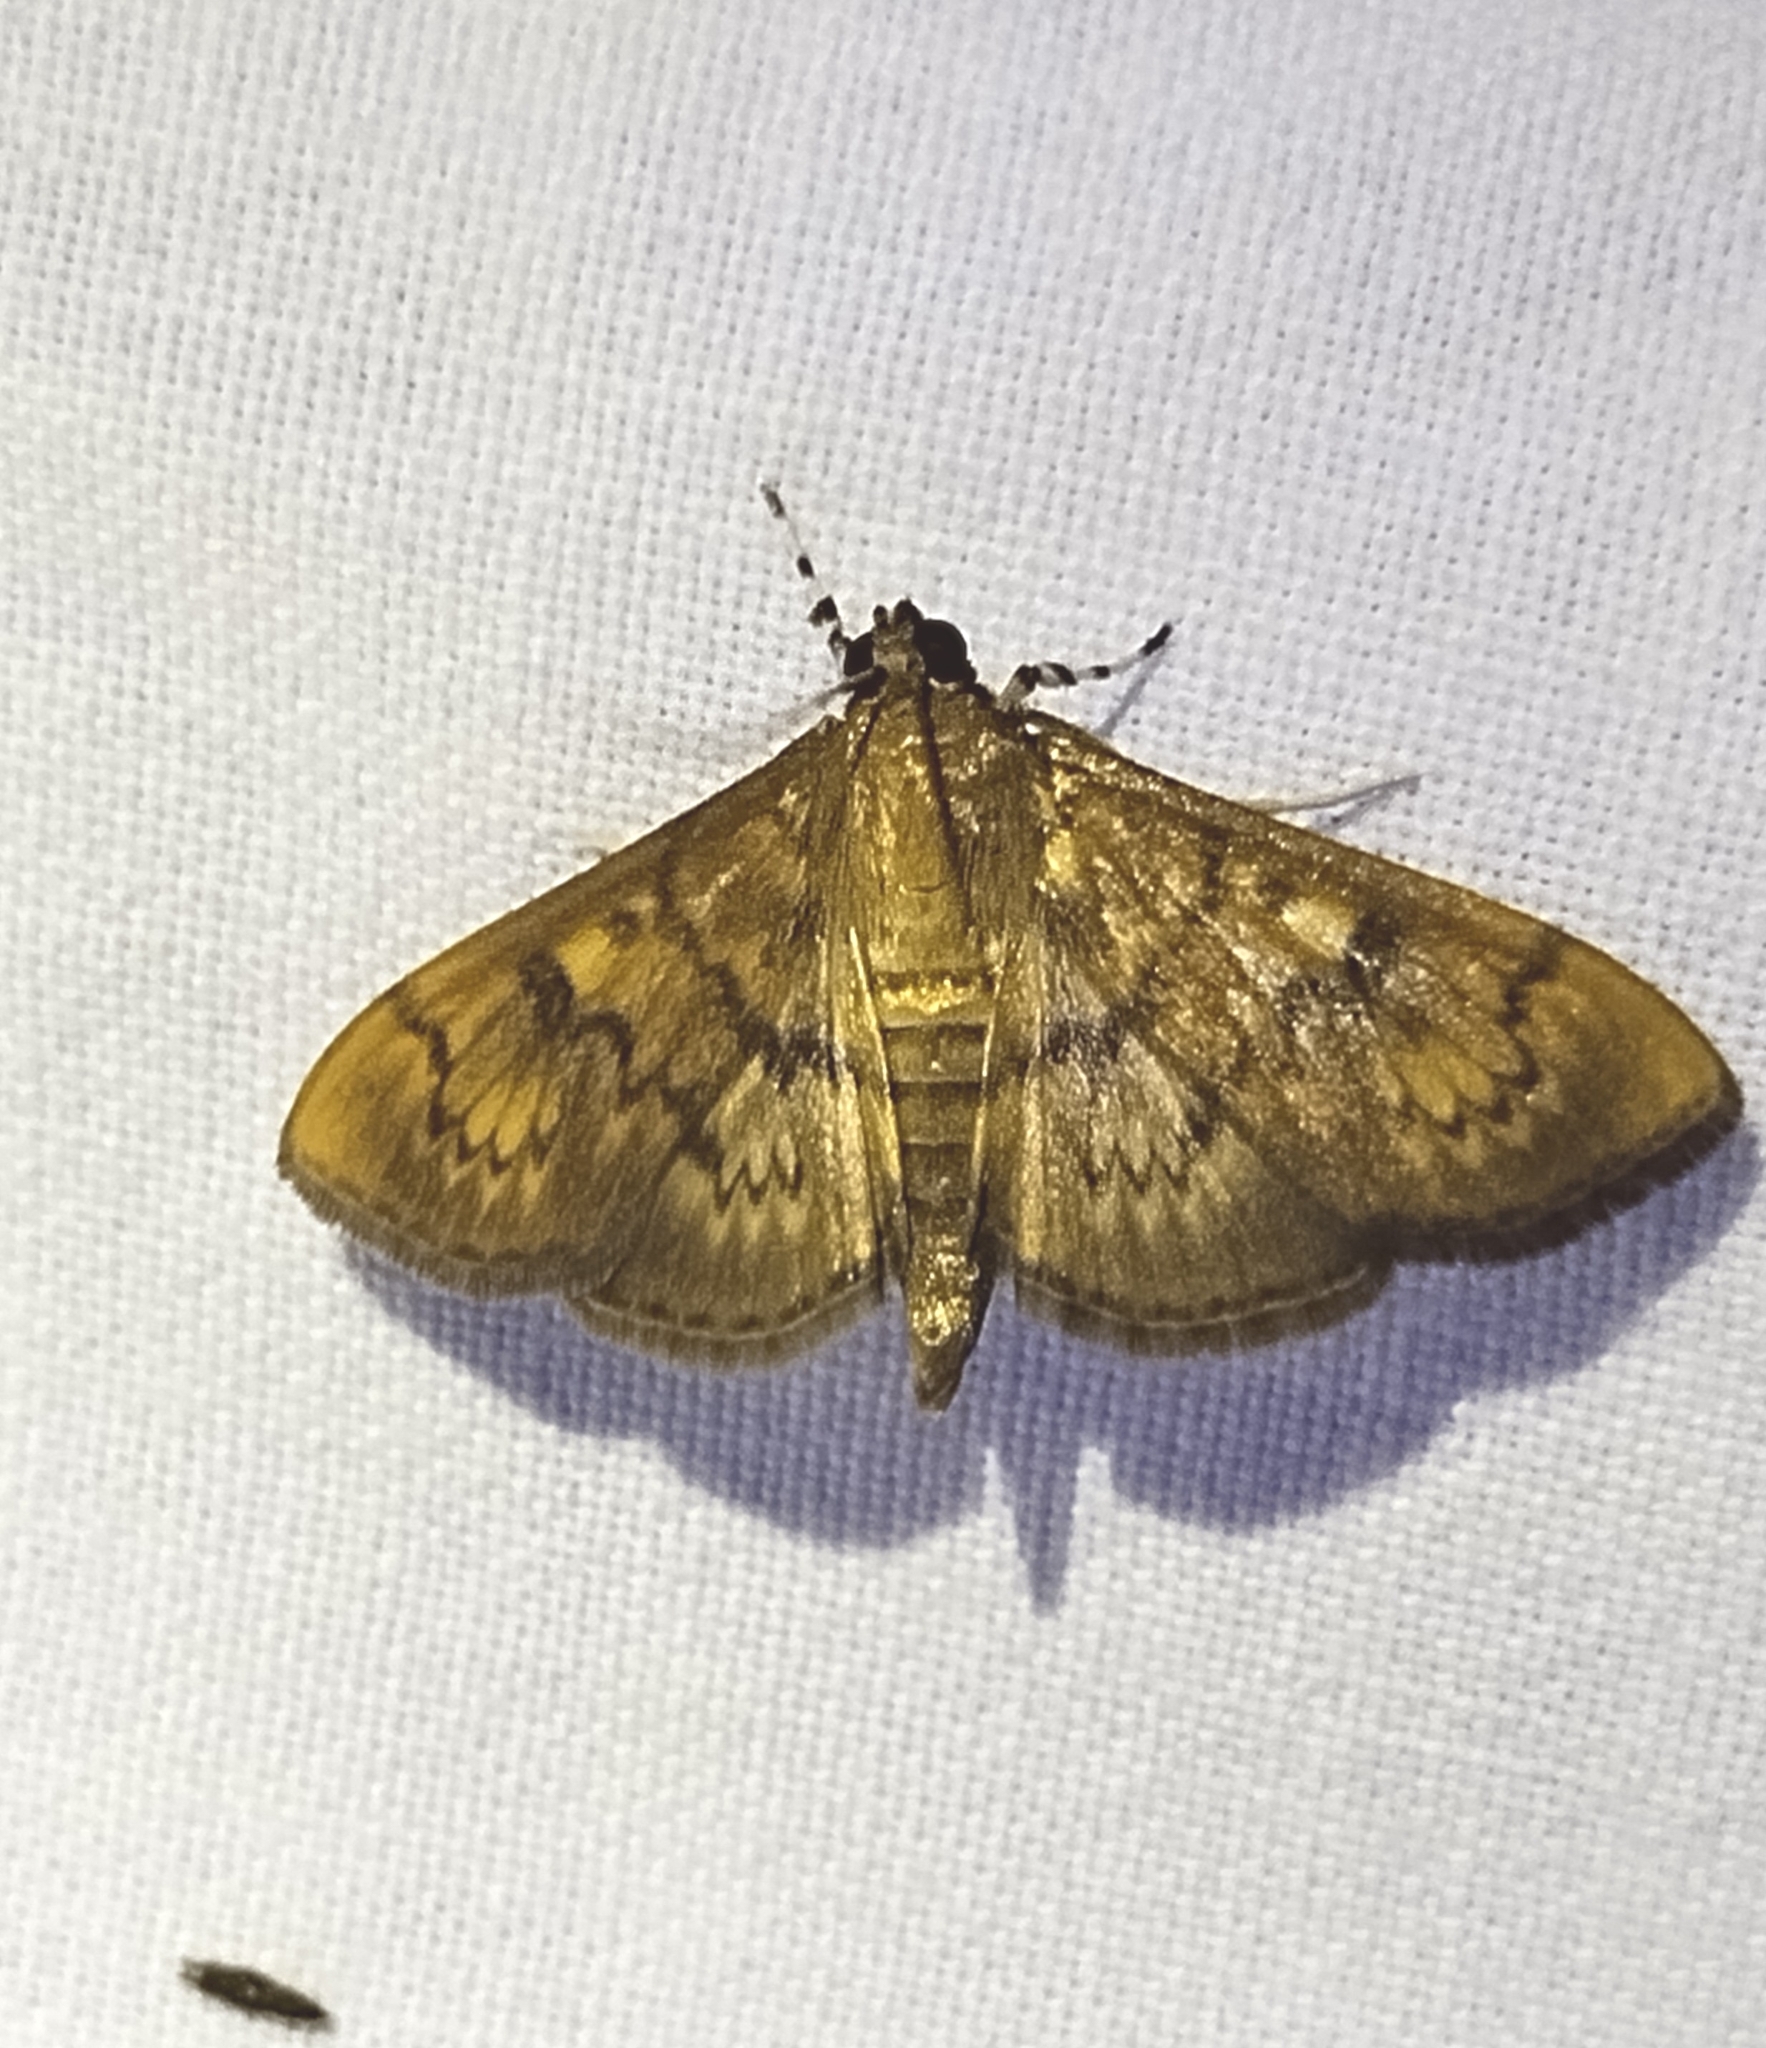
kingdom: Animalia
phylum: Arthropoda
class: Insecta
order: Lepidoptera
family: Crambidae
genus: Syllepte
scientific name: Syllepte obscuralis
